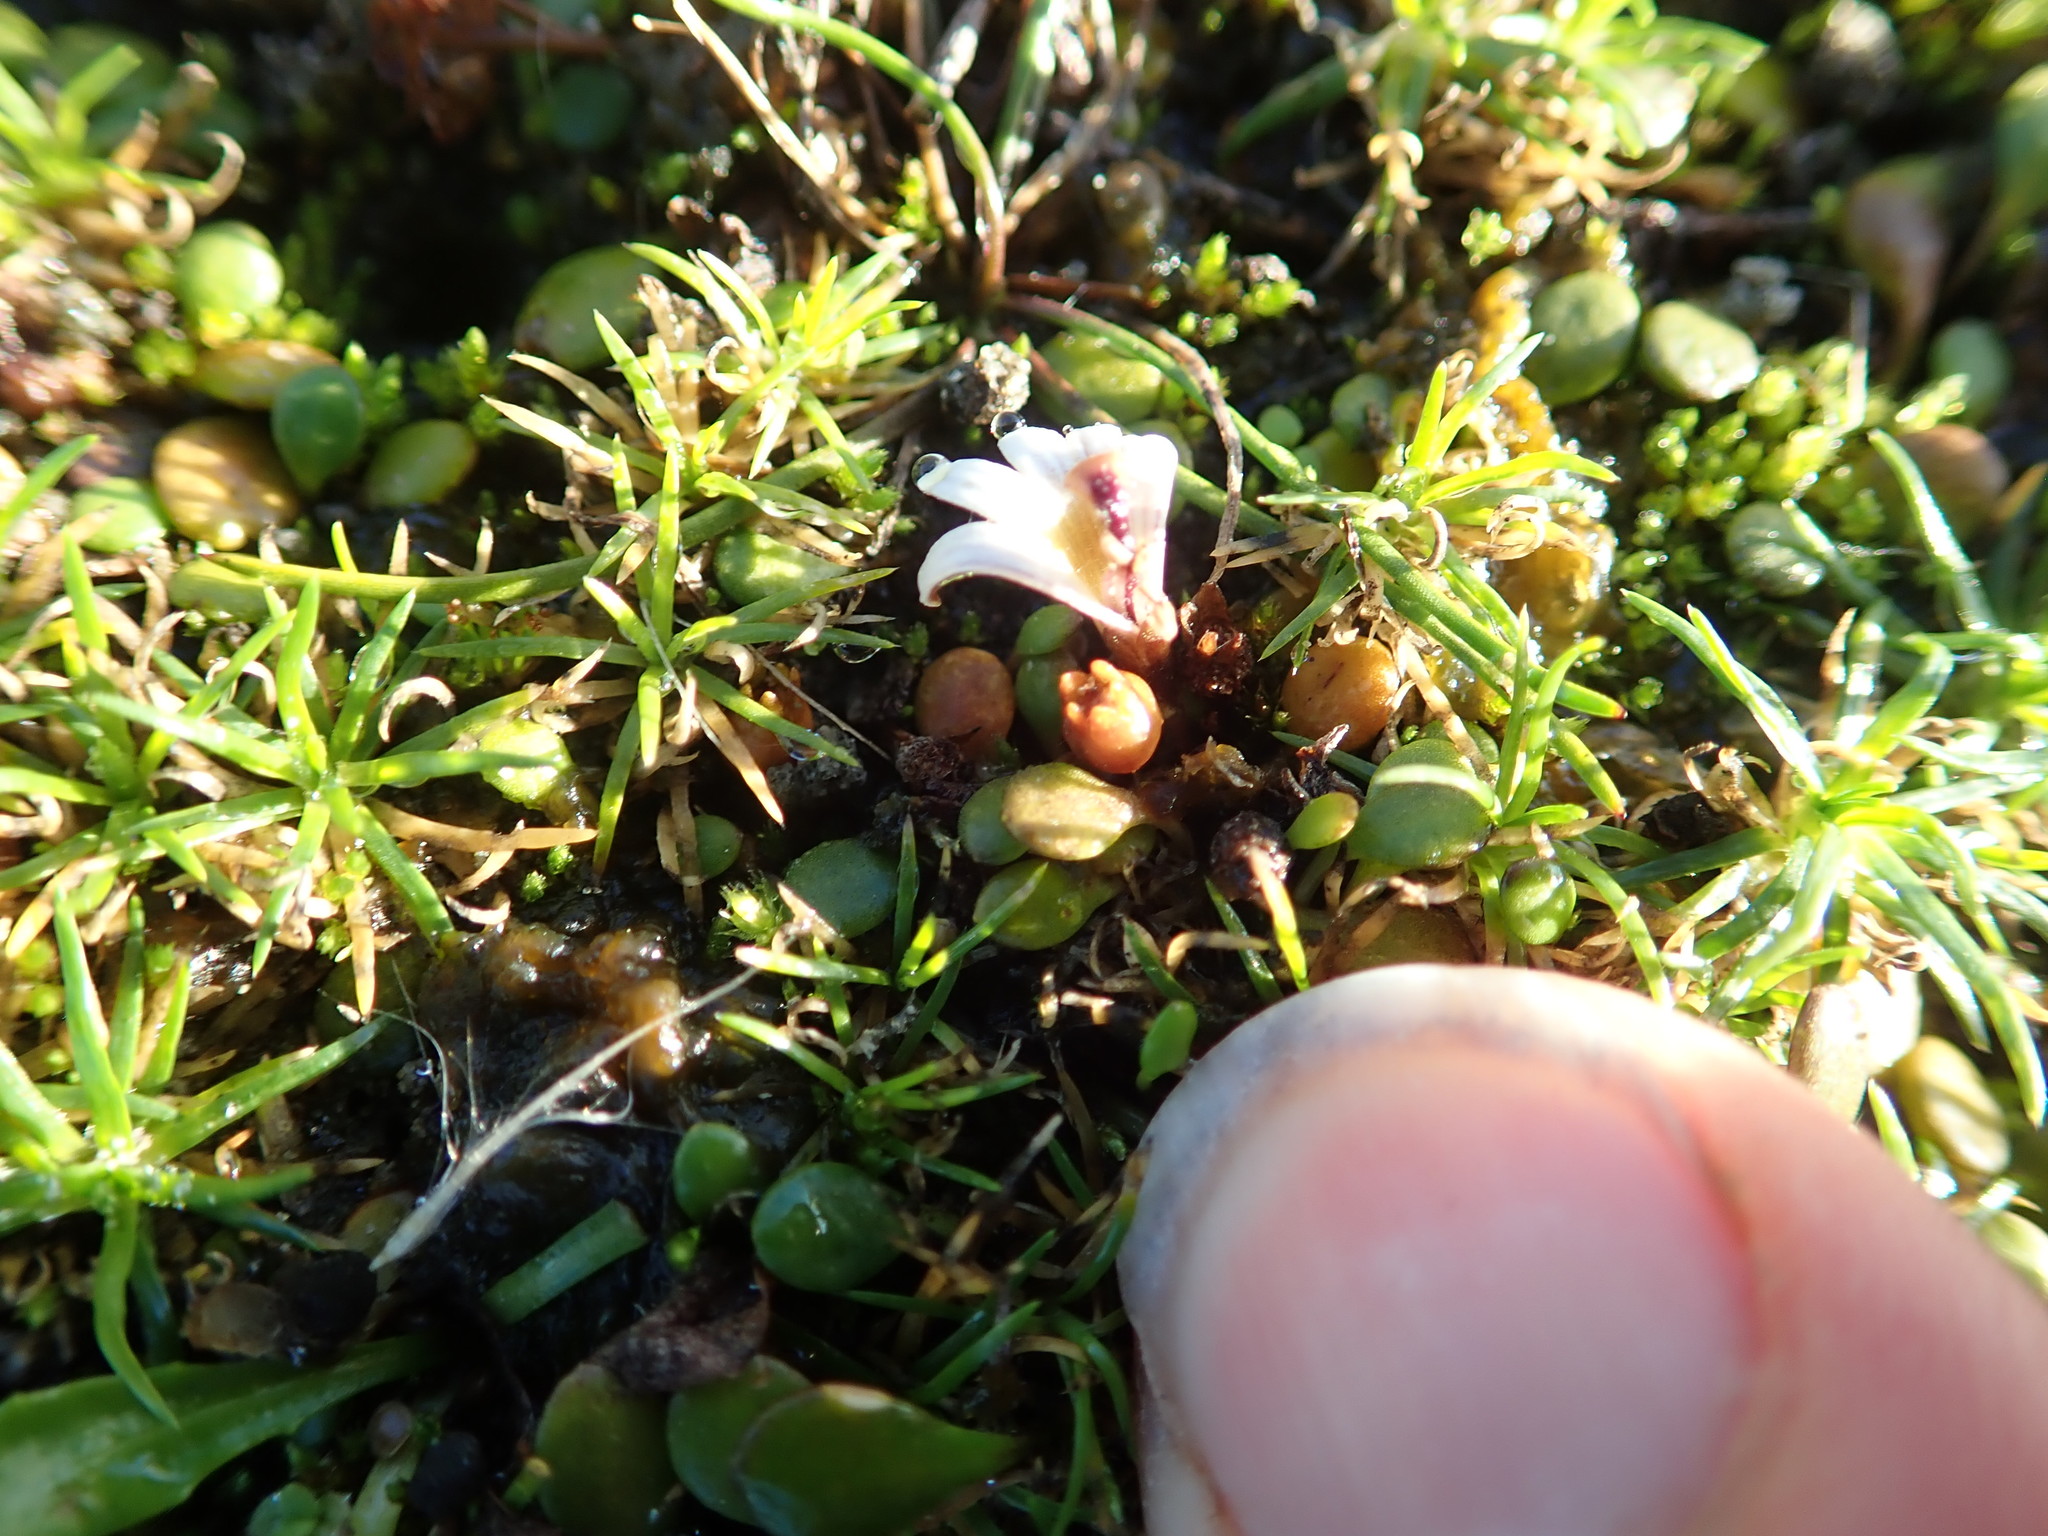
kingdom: Plantae
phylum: Tracheophyta
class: Magnoliopsida
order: Asterales
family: Goodeniaceae
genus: Goodenia
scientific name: Goodenia heenanii
